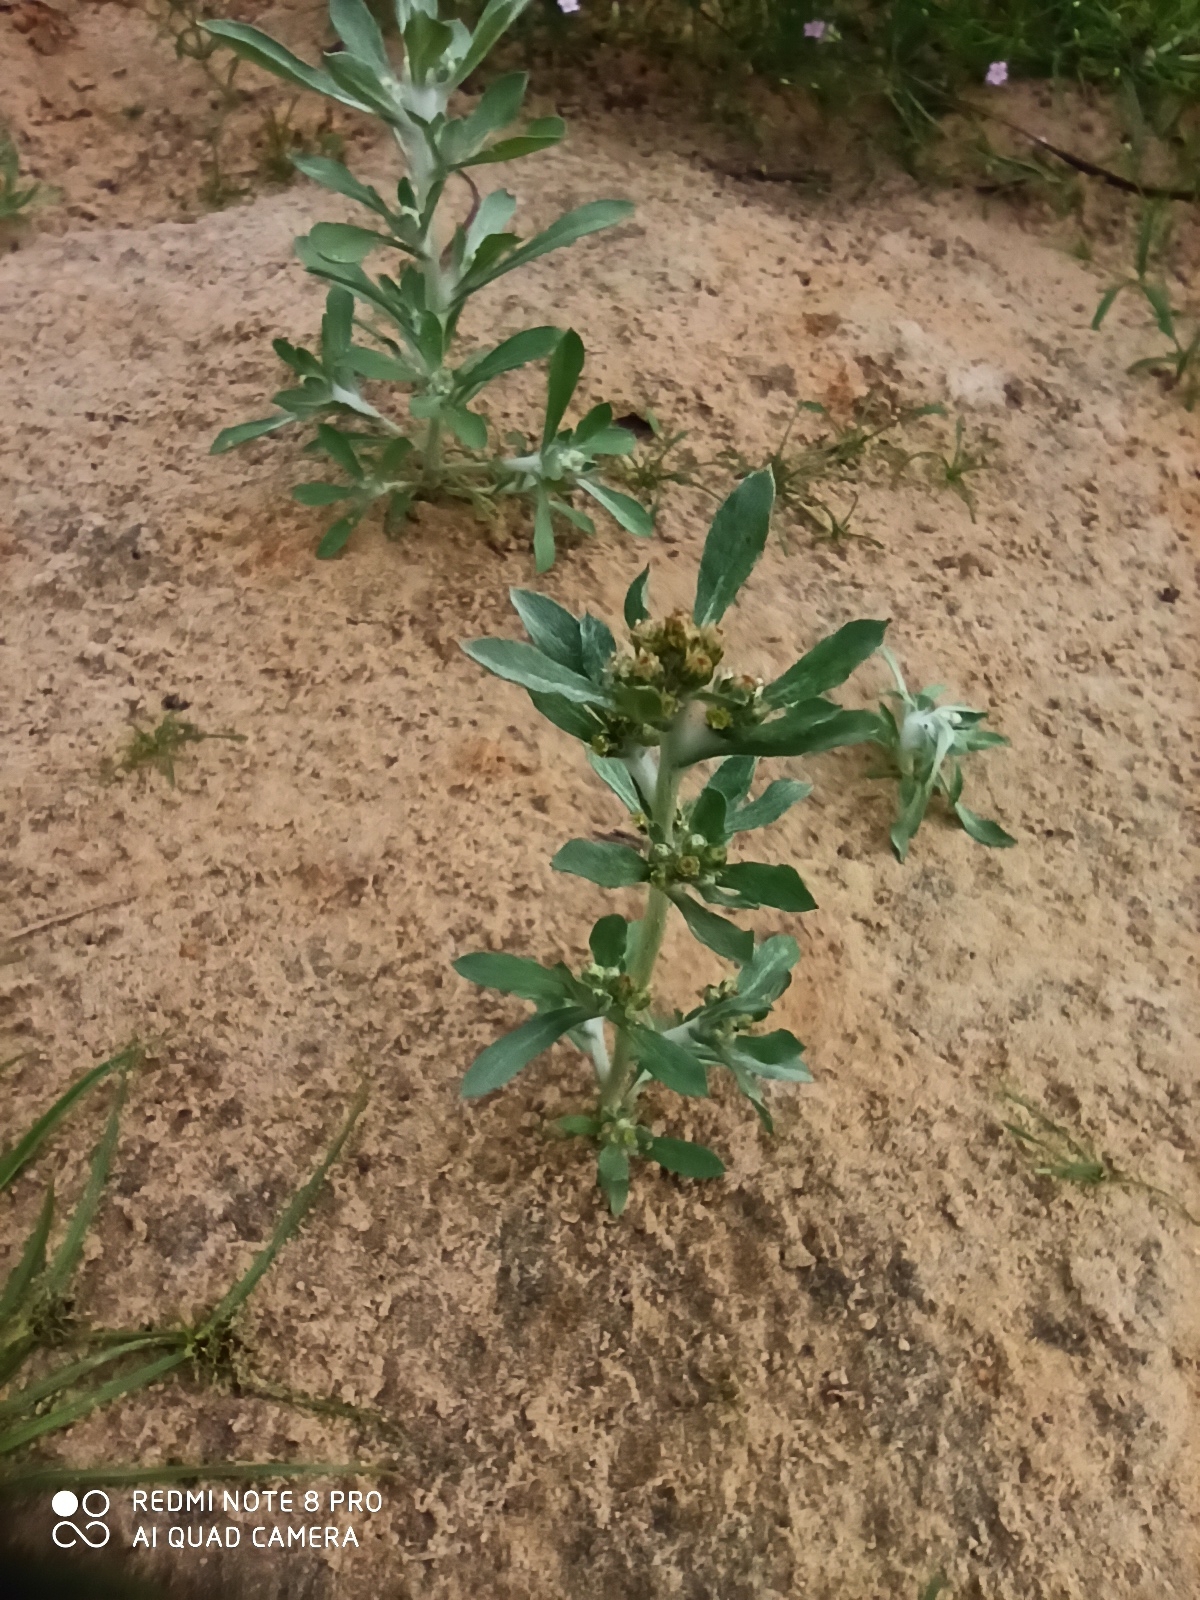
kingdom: Plantae
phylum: Tracheophyta
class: Magnoliopsida
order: Asterales
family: Asteraceae
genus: Gnaphalium
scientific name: Gnaphalium uliginosum
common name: Marsh cudweed
